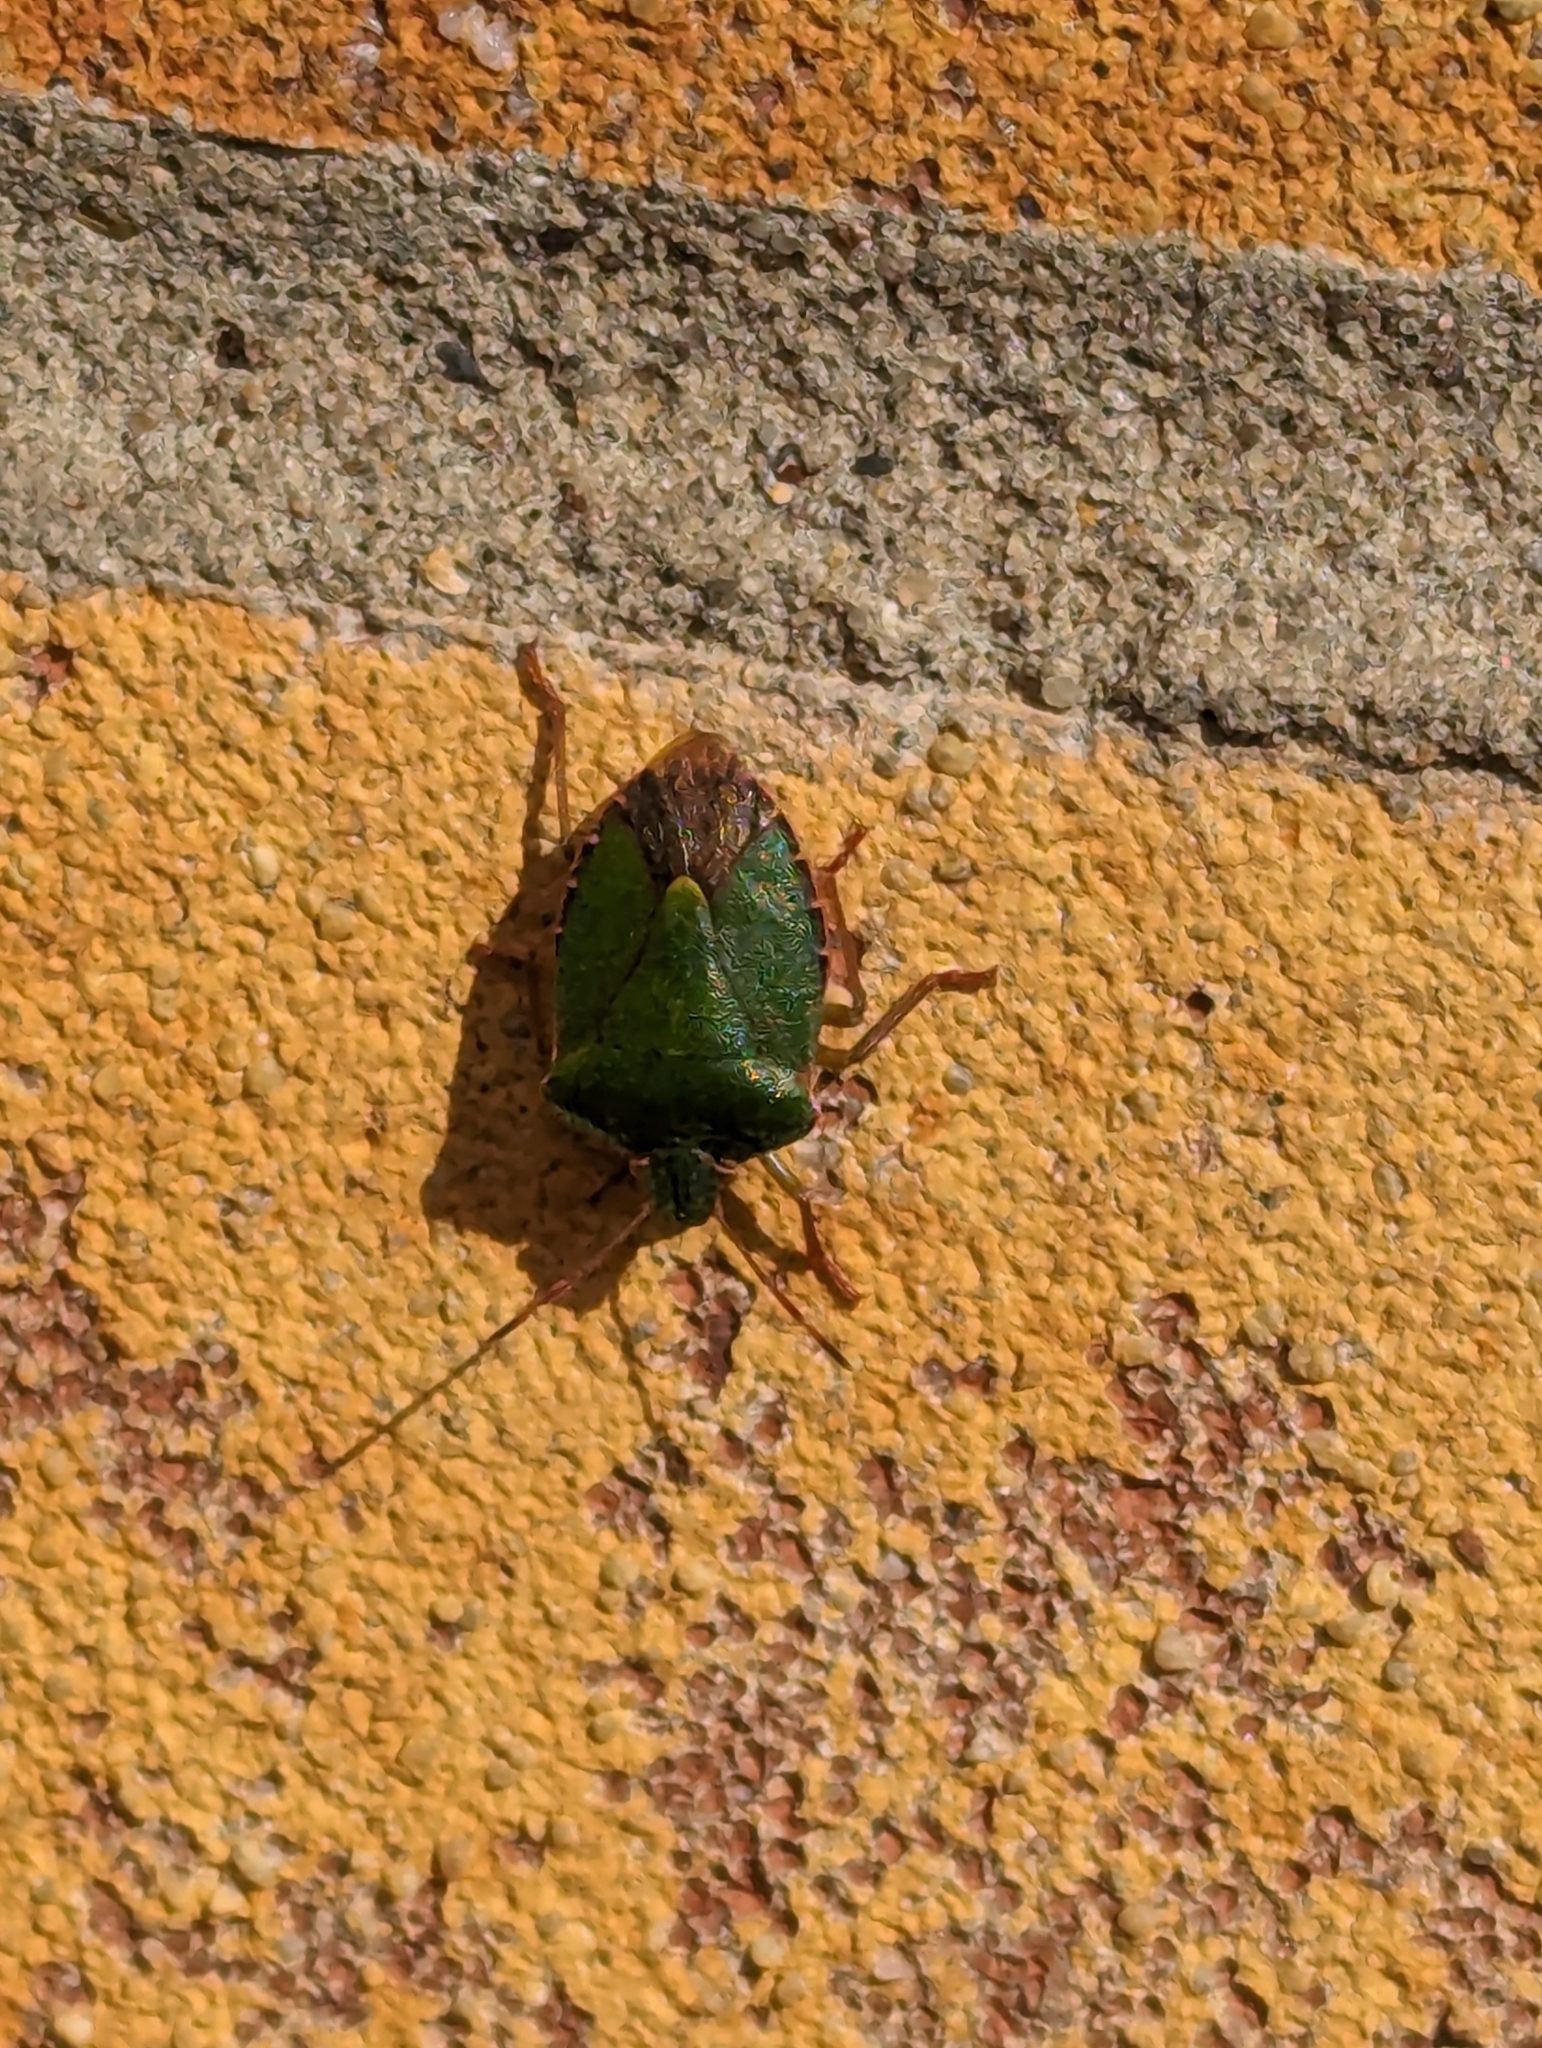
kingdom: Animalia
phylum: Arthropoda
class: Insecta
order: Hemiptera
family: Pentatomidae
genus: Palomena
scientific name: Palomena prasina
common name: Green shieldbug
